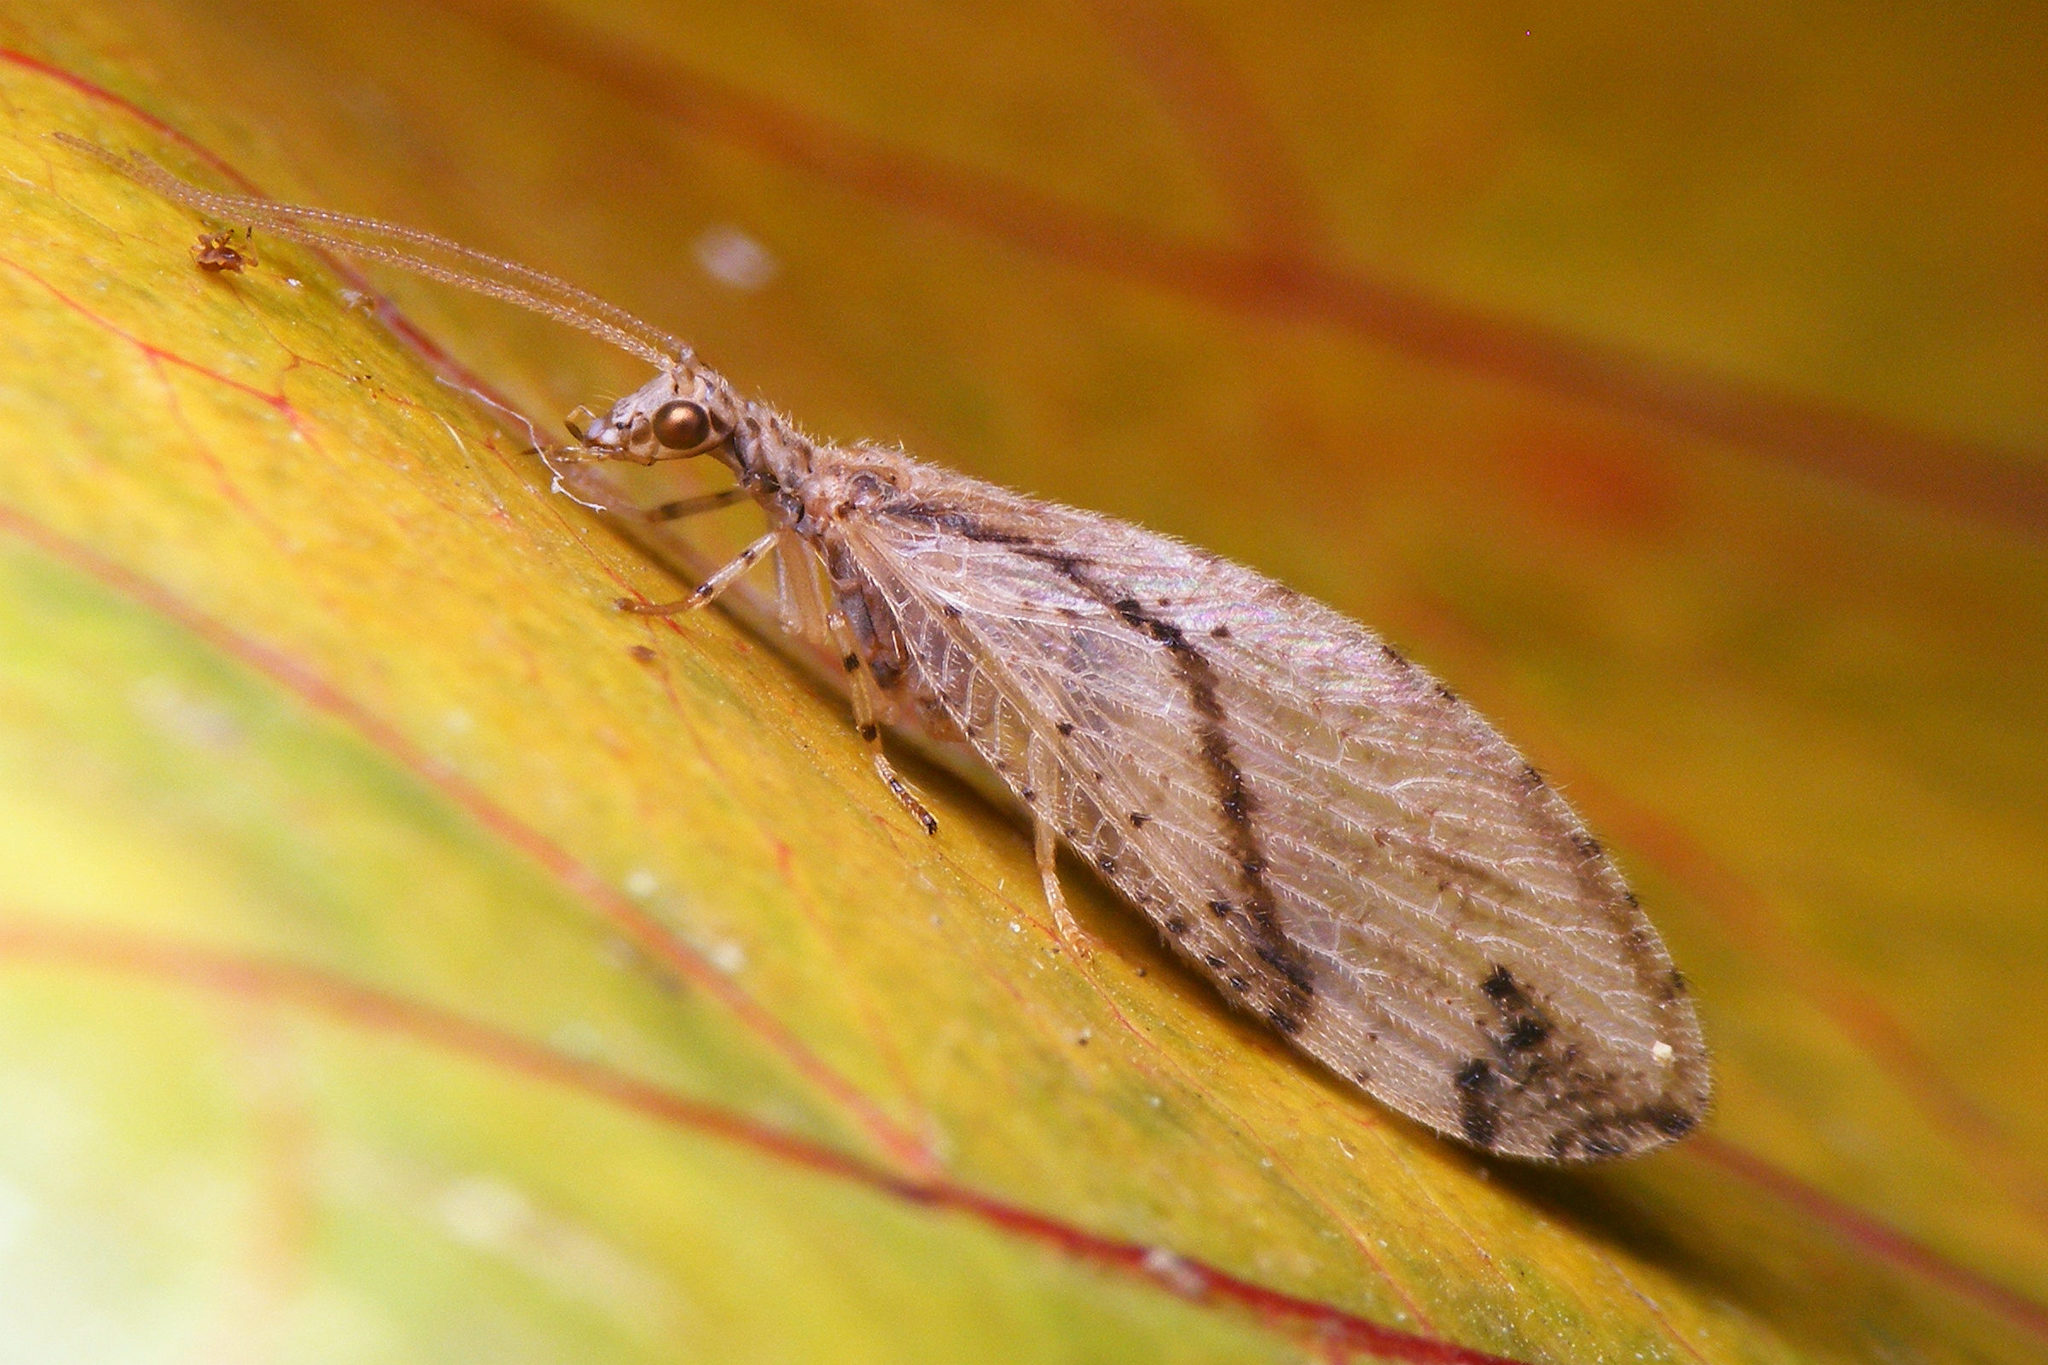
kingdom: Animalia
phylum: Arthropoda
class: Insecta
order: Neuroptera
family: Hemerobiidae
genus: Micromus
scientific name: Micromus canariensis
